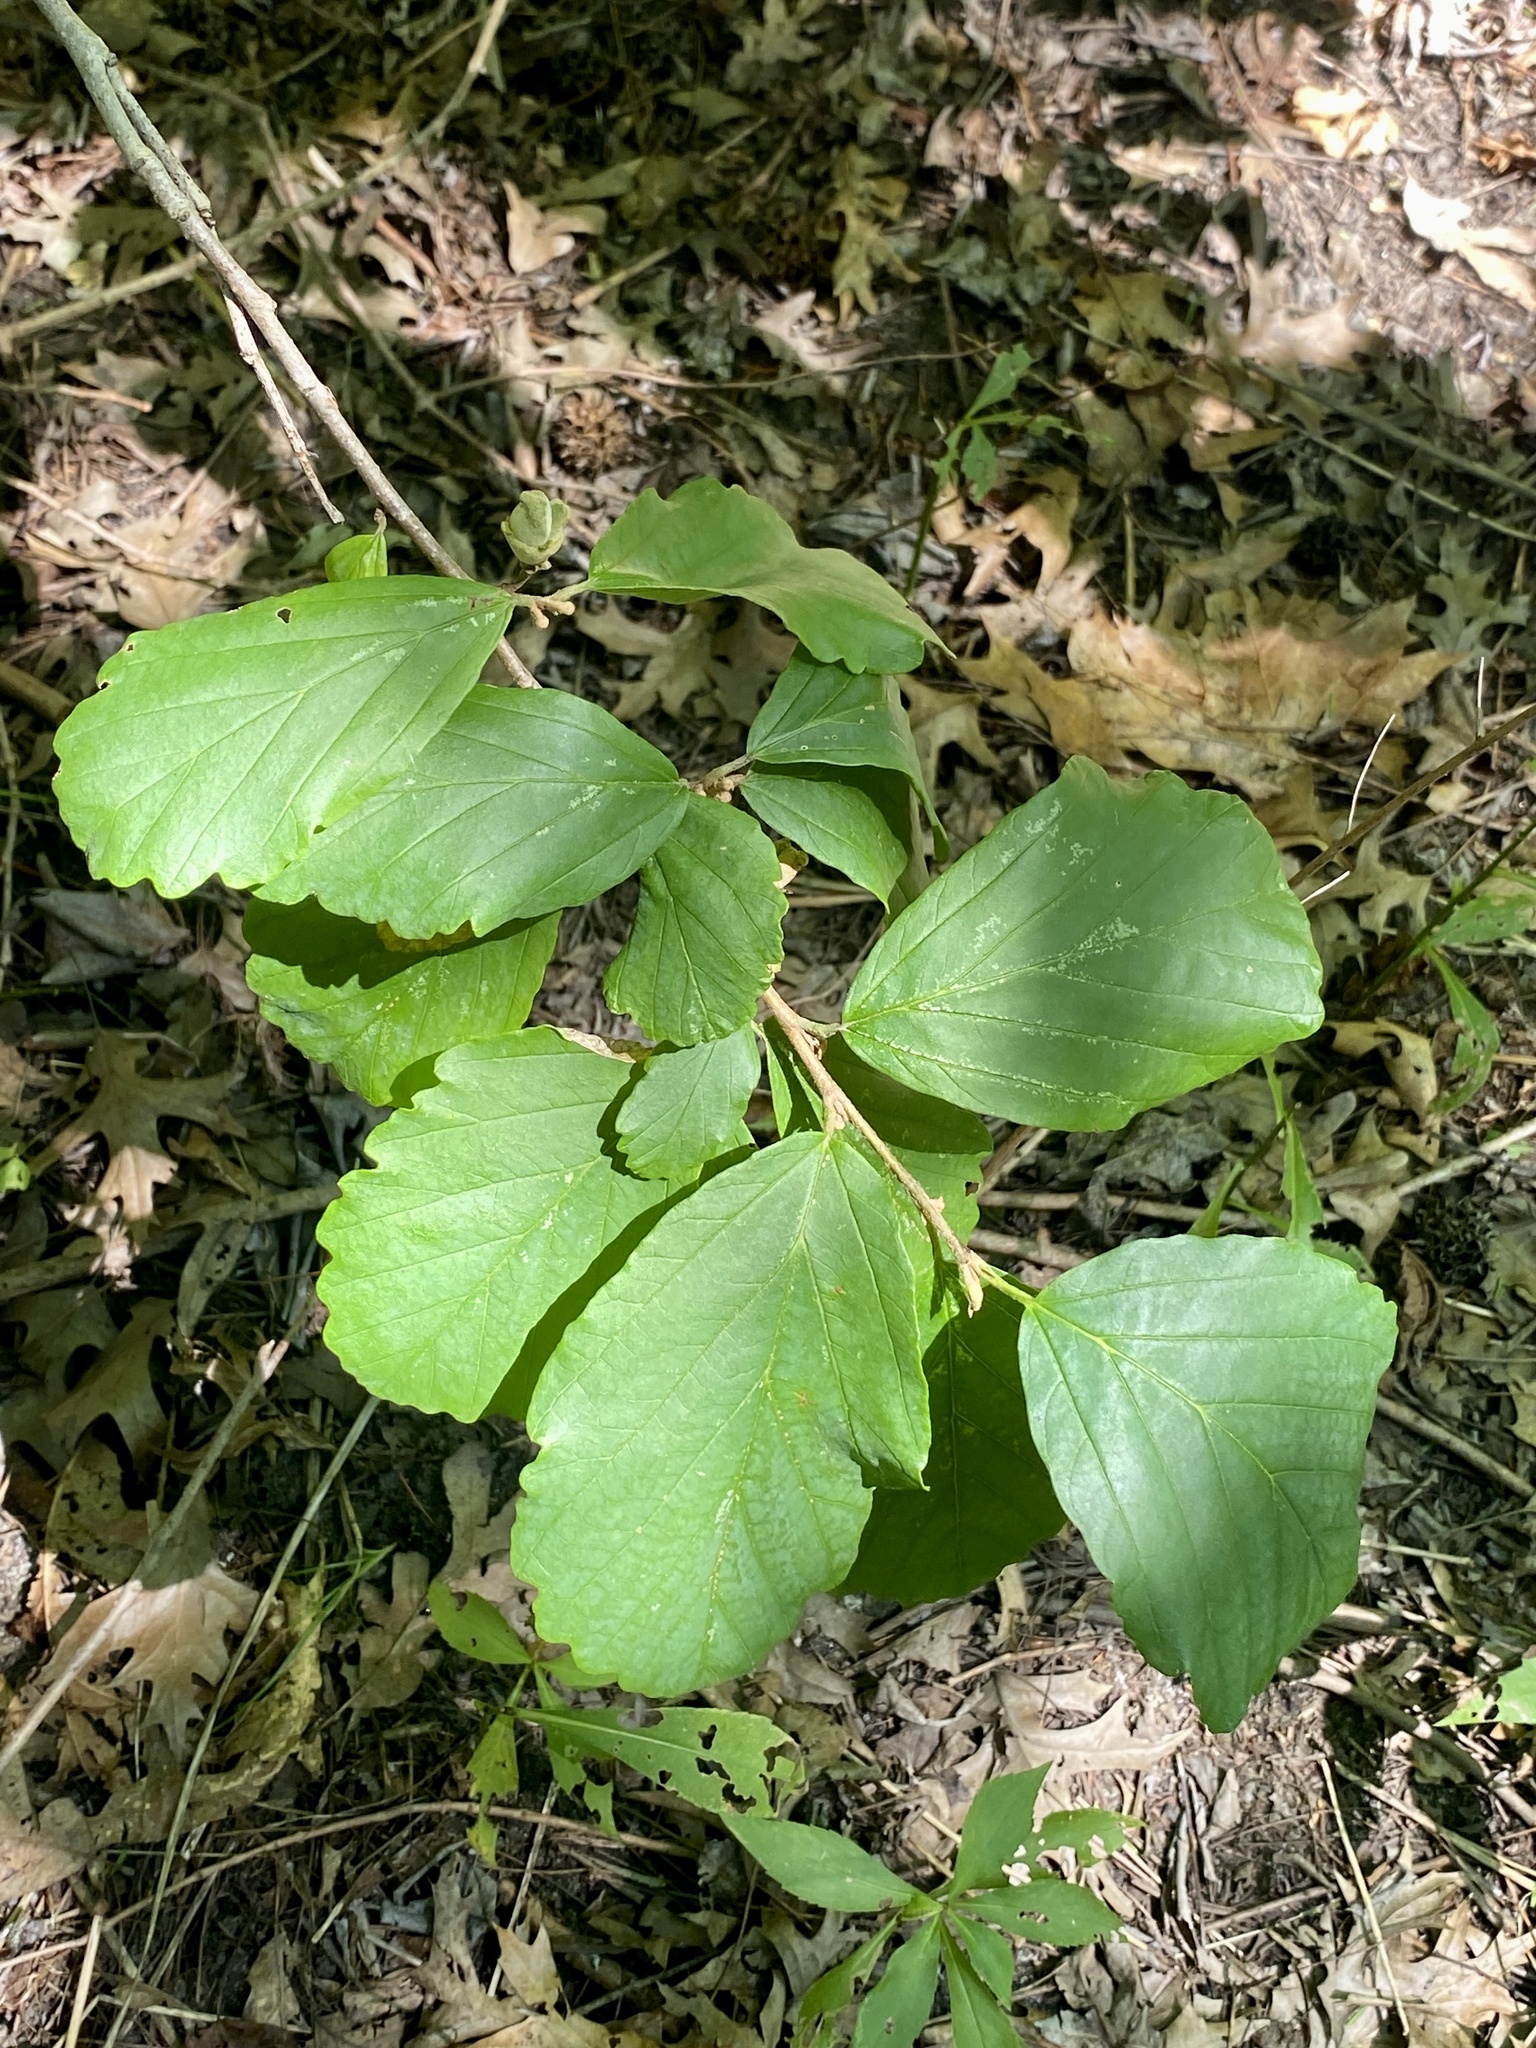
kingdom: Plantae
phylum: Tracheophyta
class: Magnoliopsida
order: Saxifragales
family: Hamamelidaceae
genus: Hamamelis
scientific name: Hamamelis virginiana
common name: Witch-hazel
